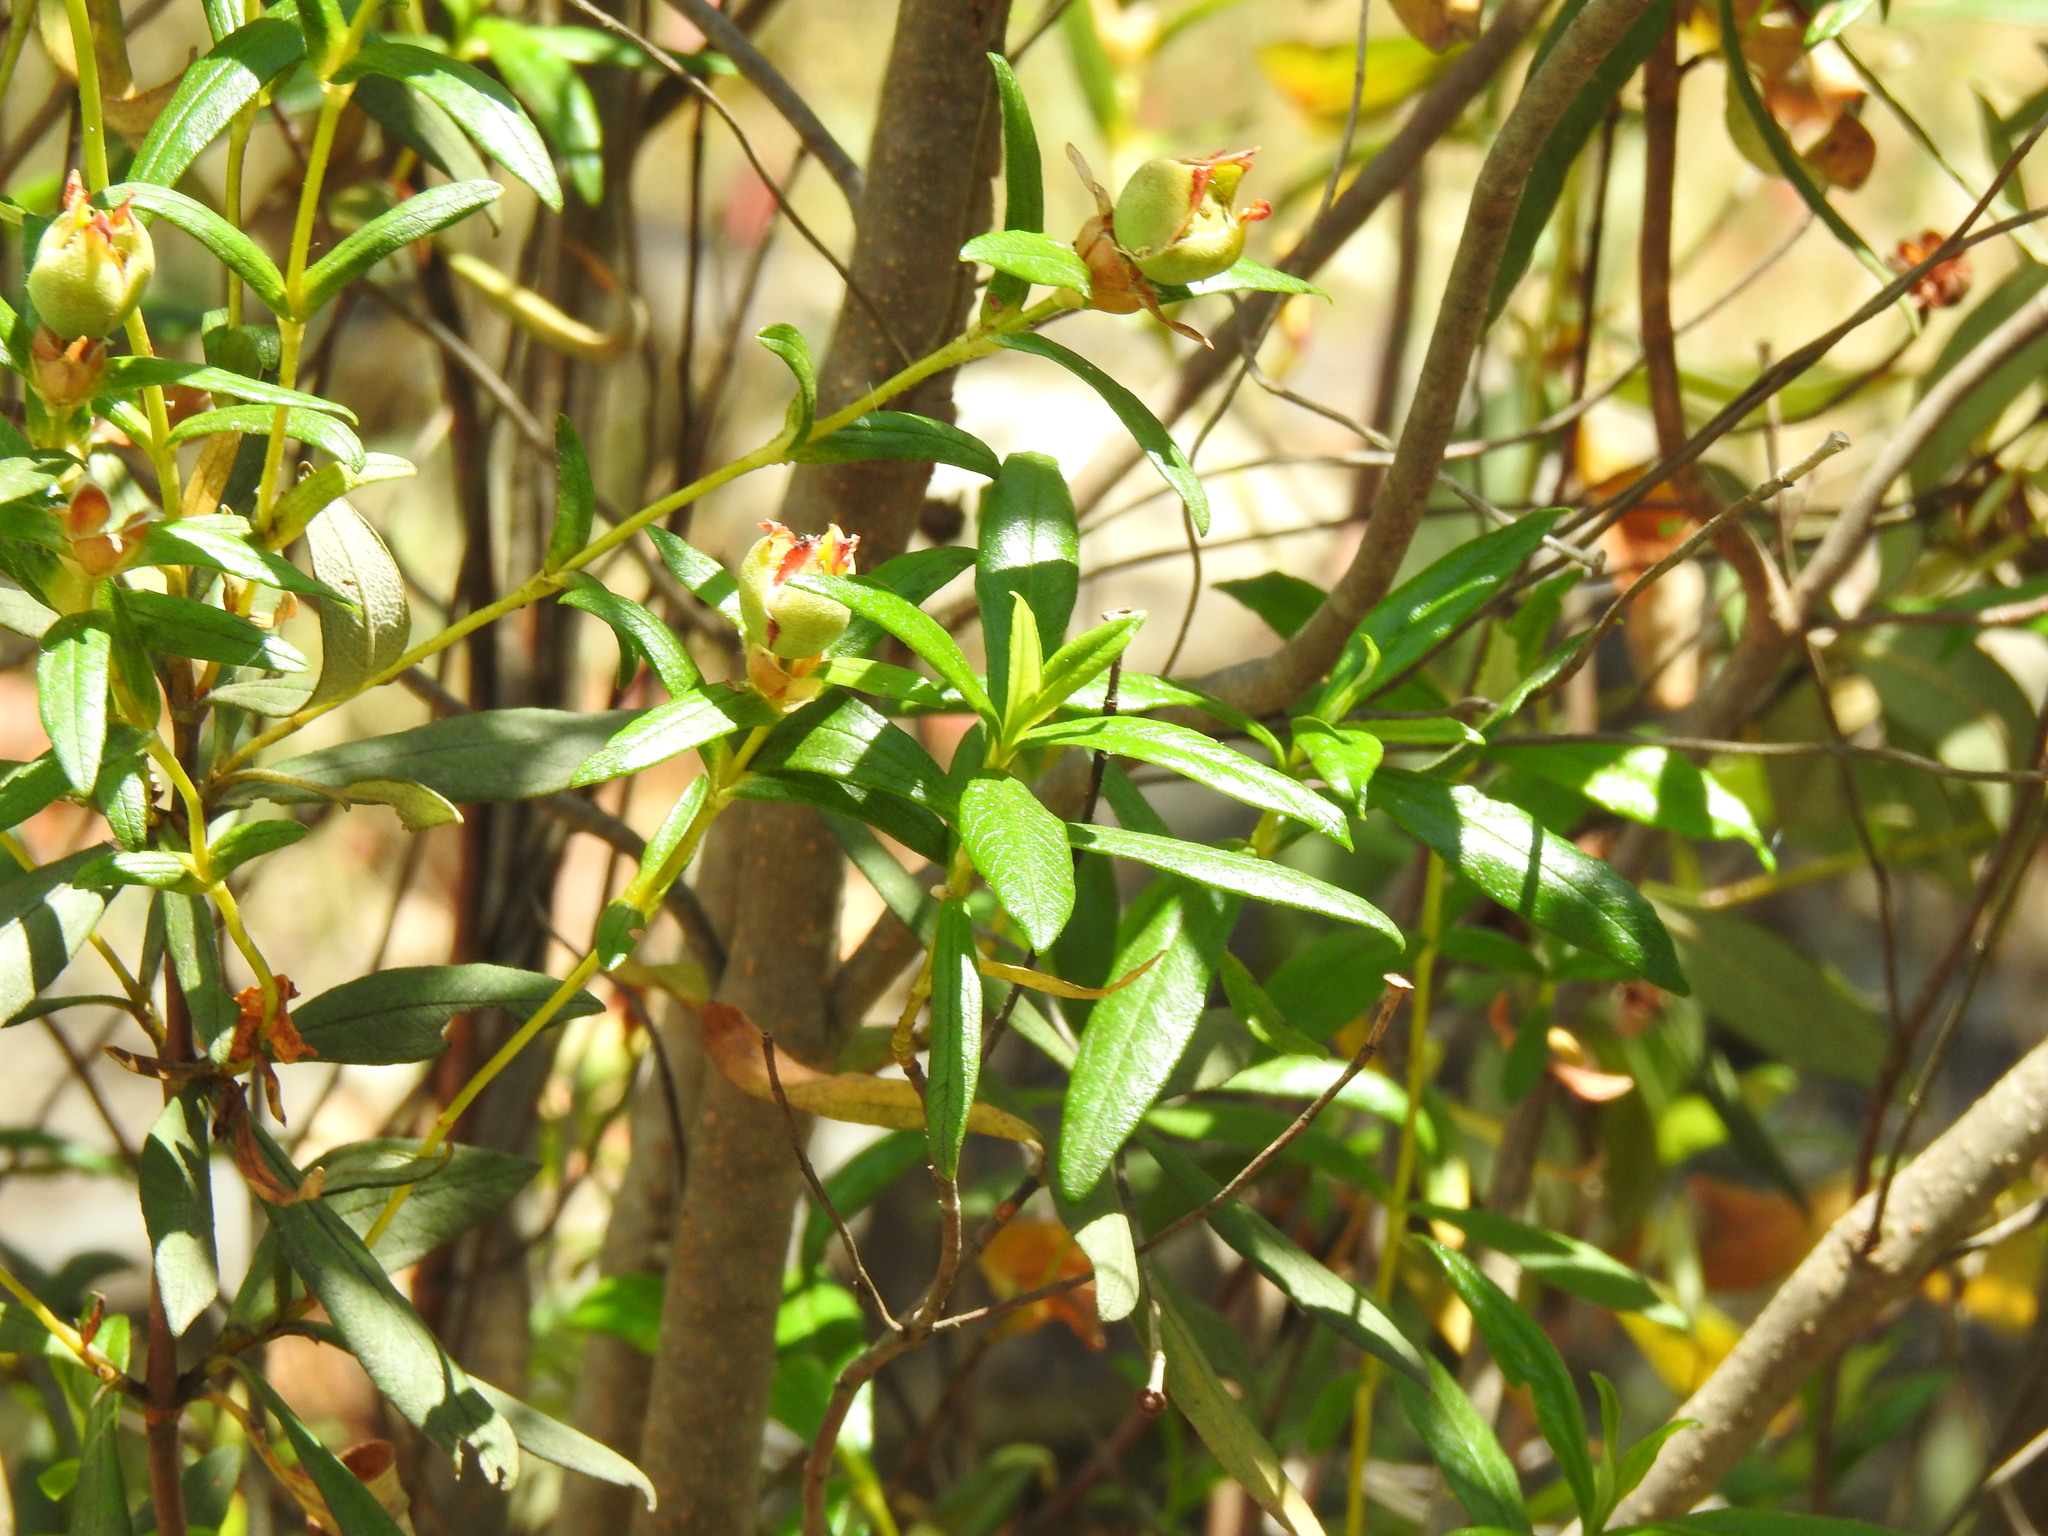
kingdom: Plantae
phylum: Tracheophyta
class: Magnoliopsida
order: Malvales
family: Cistaceae
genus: Cistus
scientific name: Cistus ladanifer
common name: Common gum cistus
